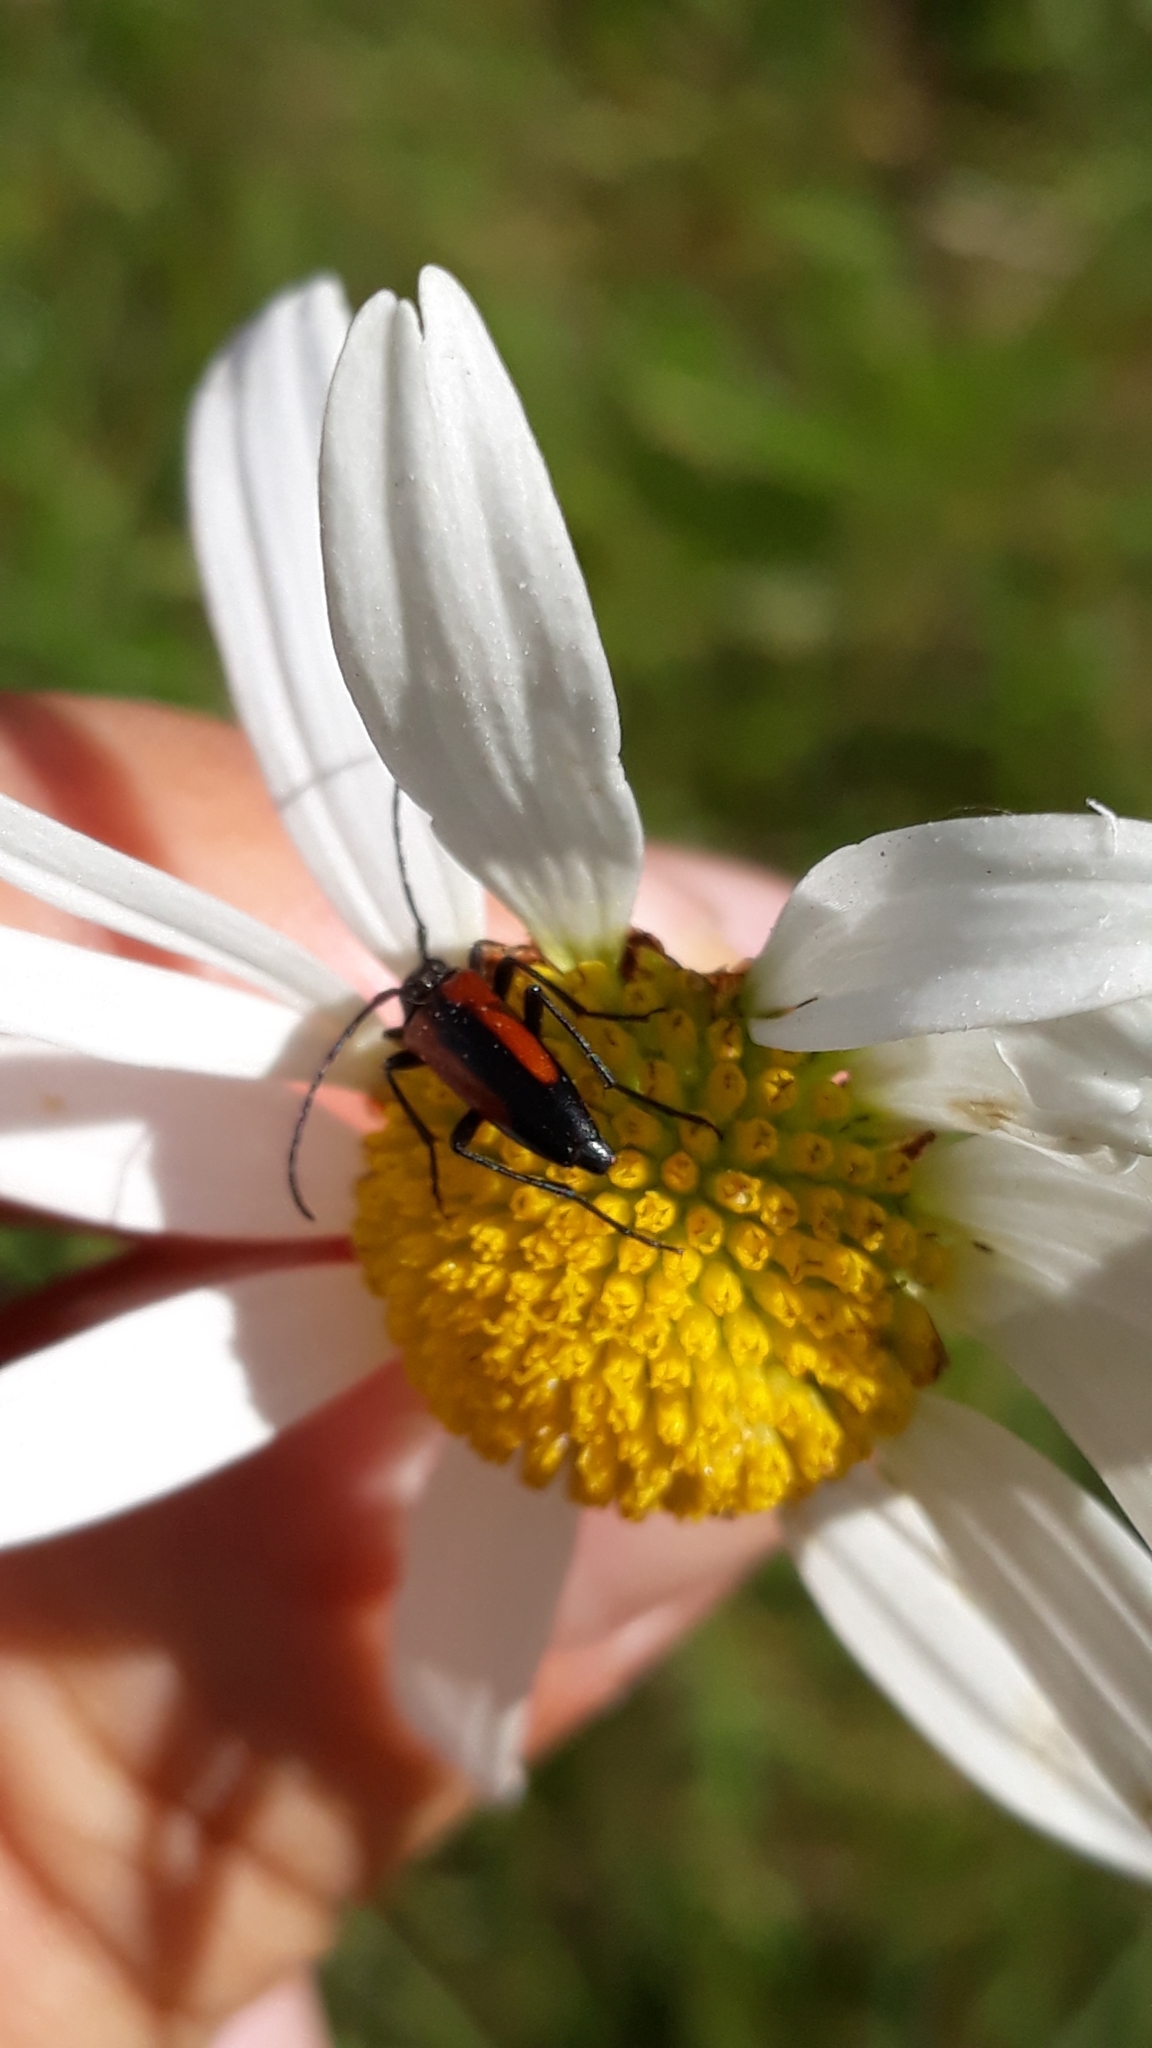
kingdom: Animalia
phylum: Arthropoda
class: Insecta
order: Coleoptera
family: Cerambycidae
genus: Stenurella
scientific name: Stenurella melanura
